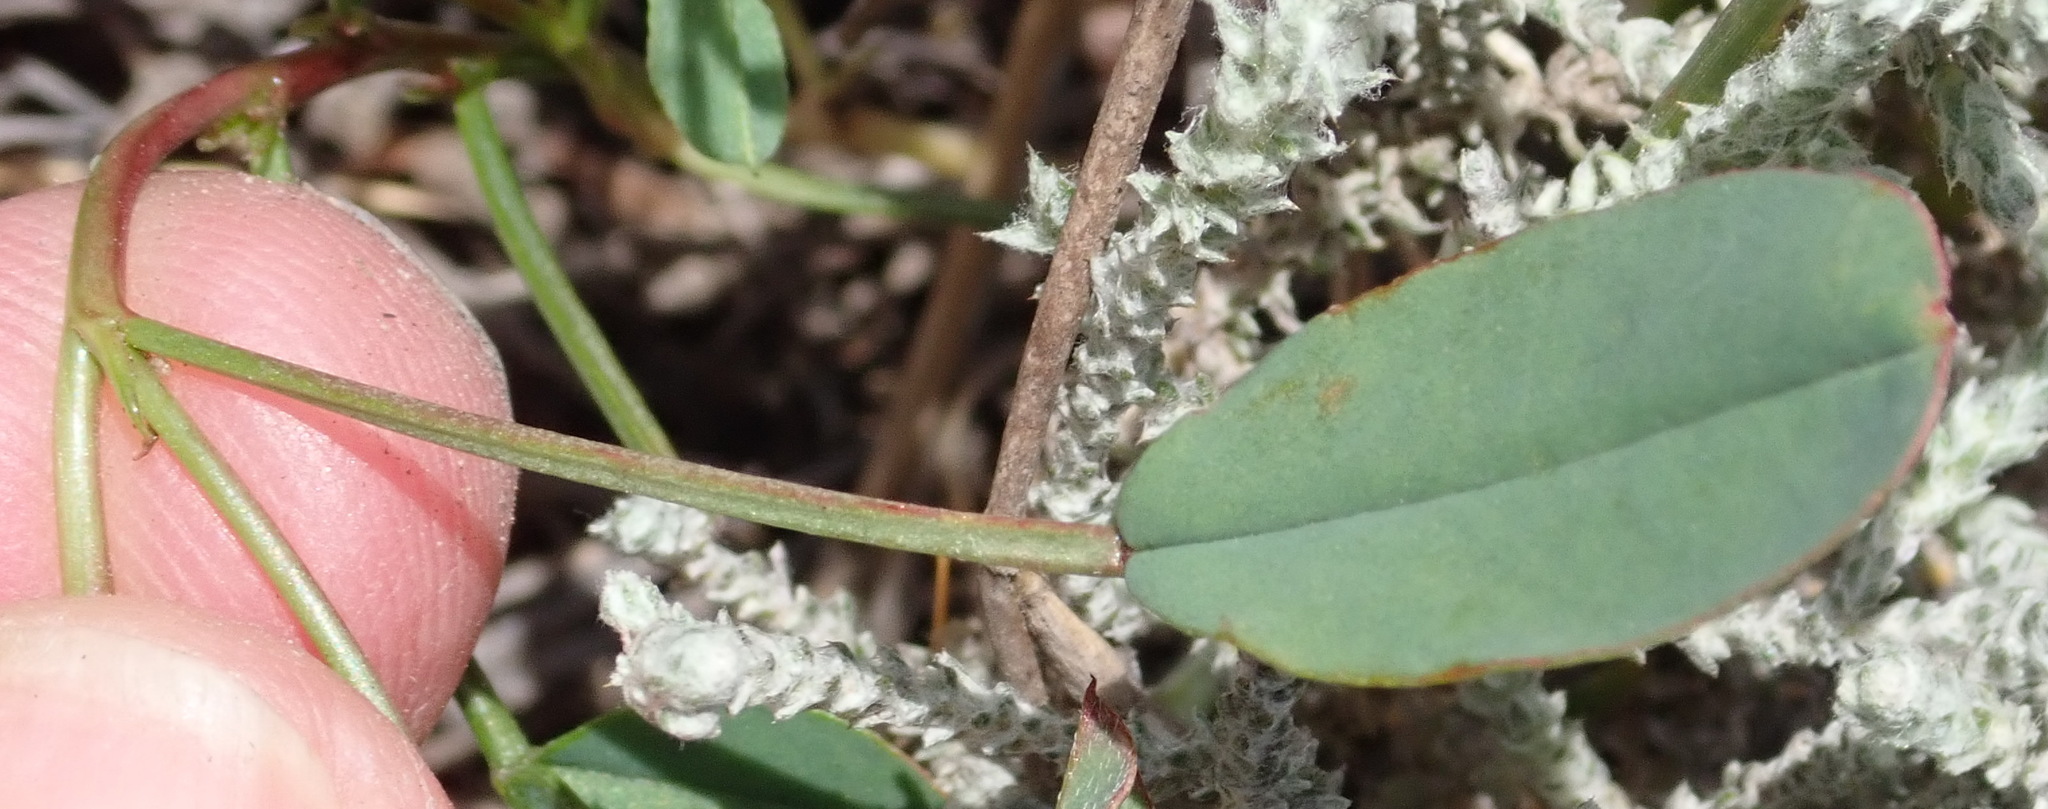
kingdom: Plantae
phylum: Tracheophyta
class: Magnoliopsida
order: Fabales
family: Fabaceae
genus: Indigofera
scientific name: Indigofera
